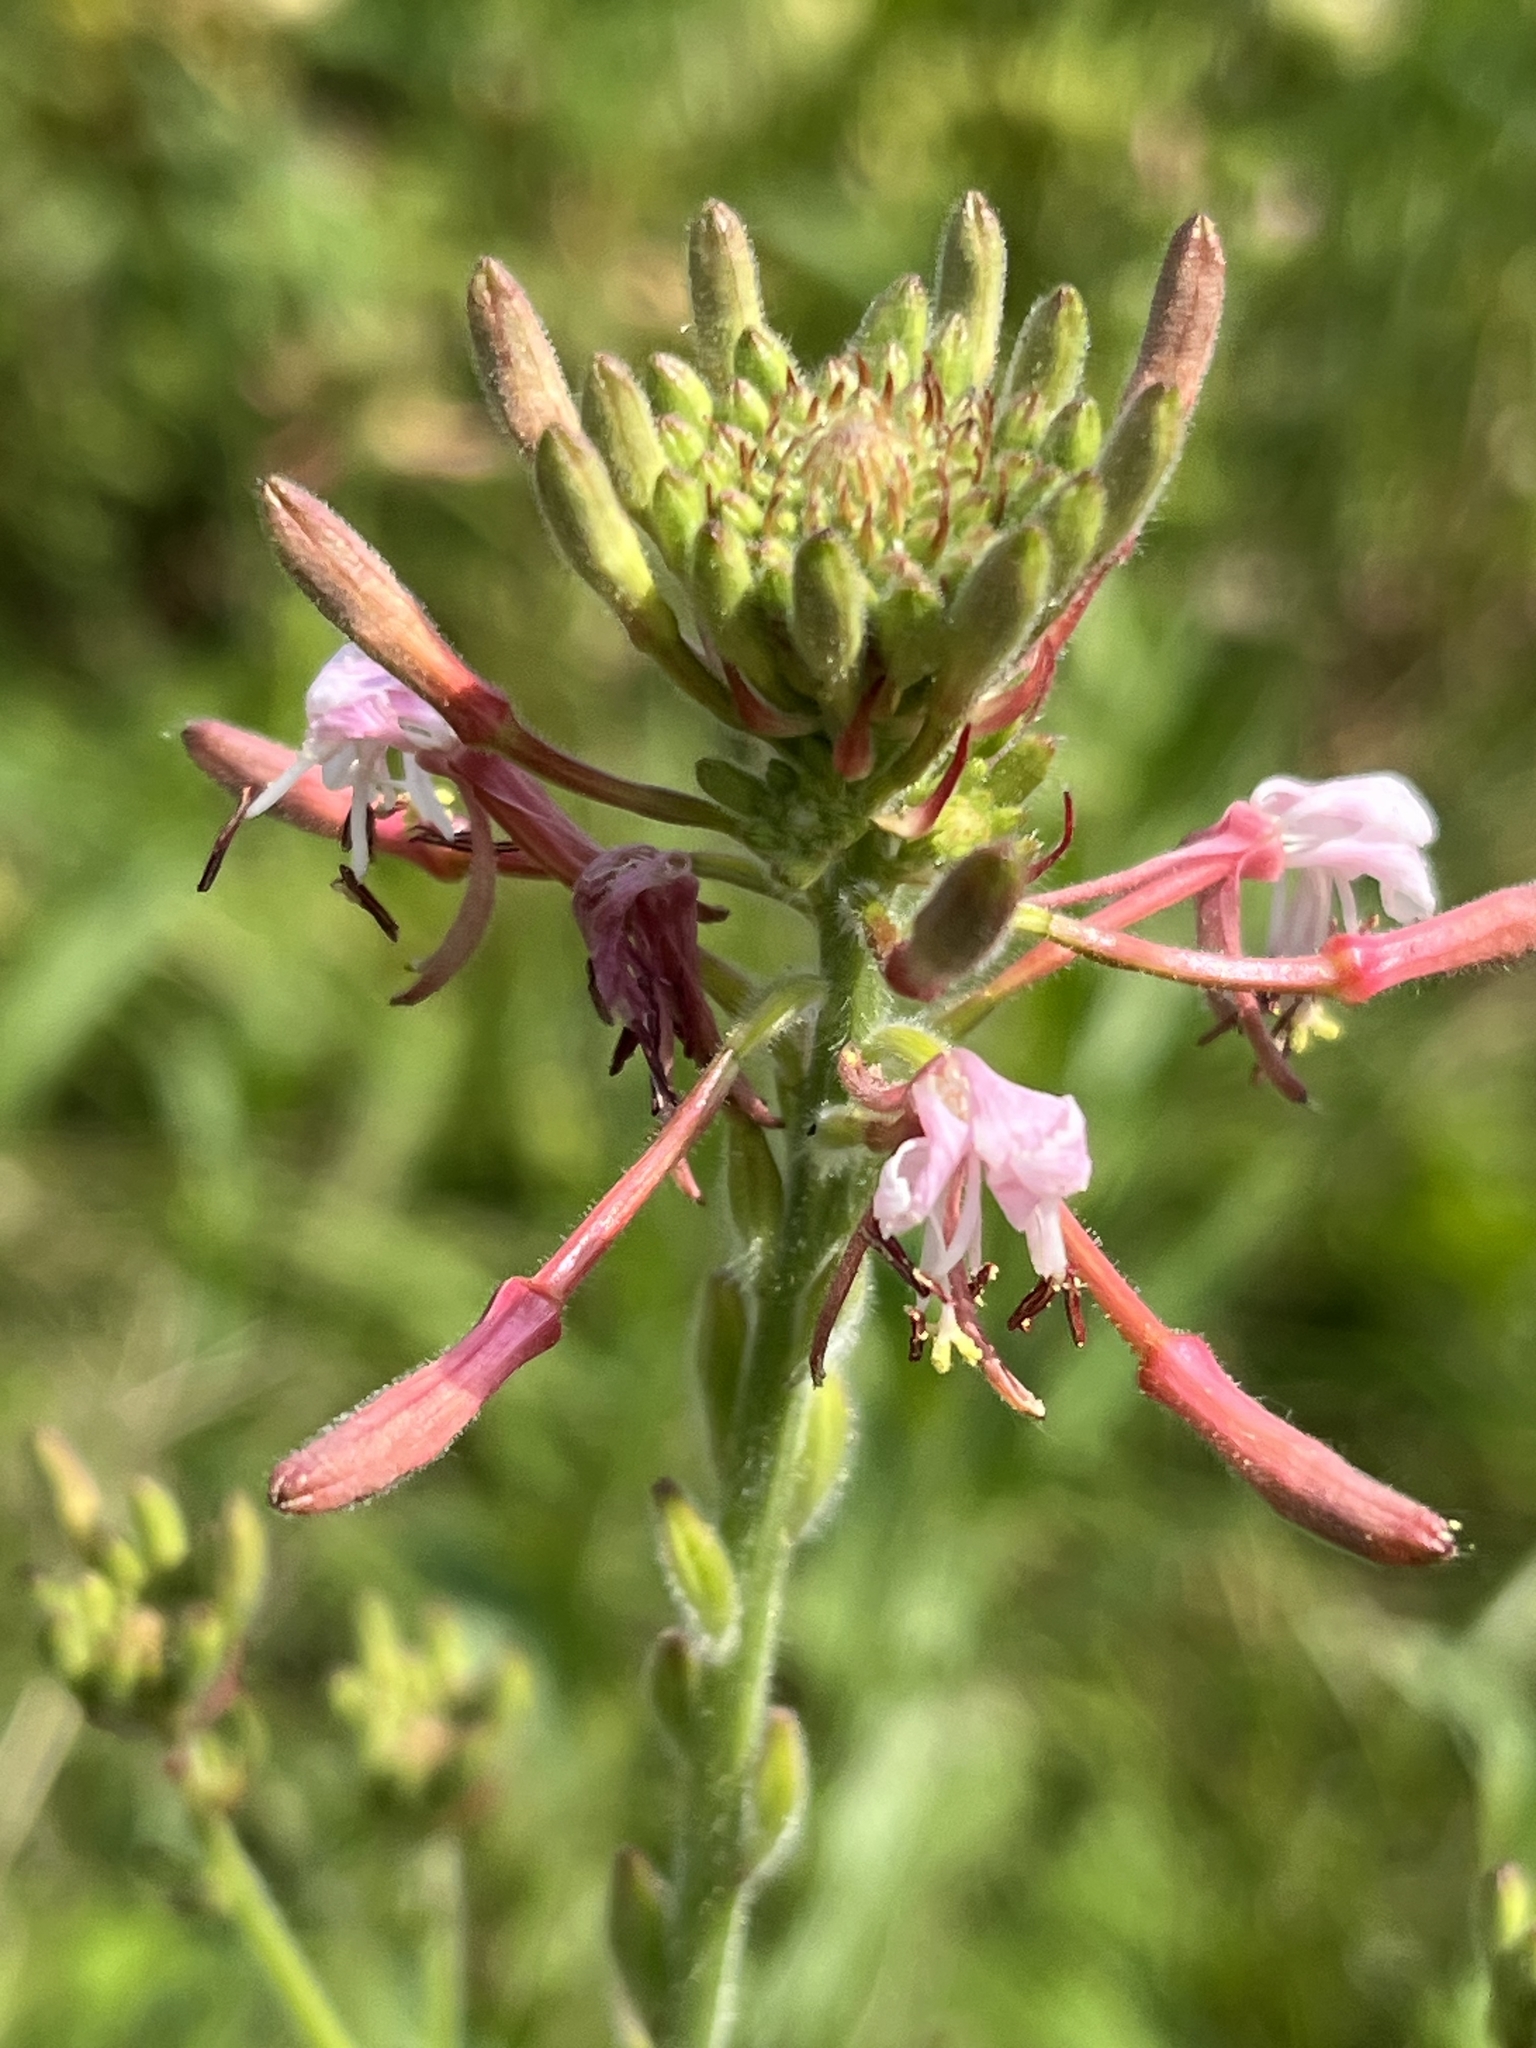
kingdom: Plantae
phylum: Tracheophyta
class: Magnoliopsida
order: Myrtales
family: Onagraceae
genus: Oenothera
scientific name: Oenothera gaura
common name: Biennial beeblossom
